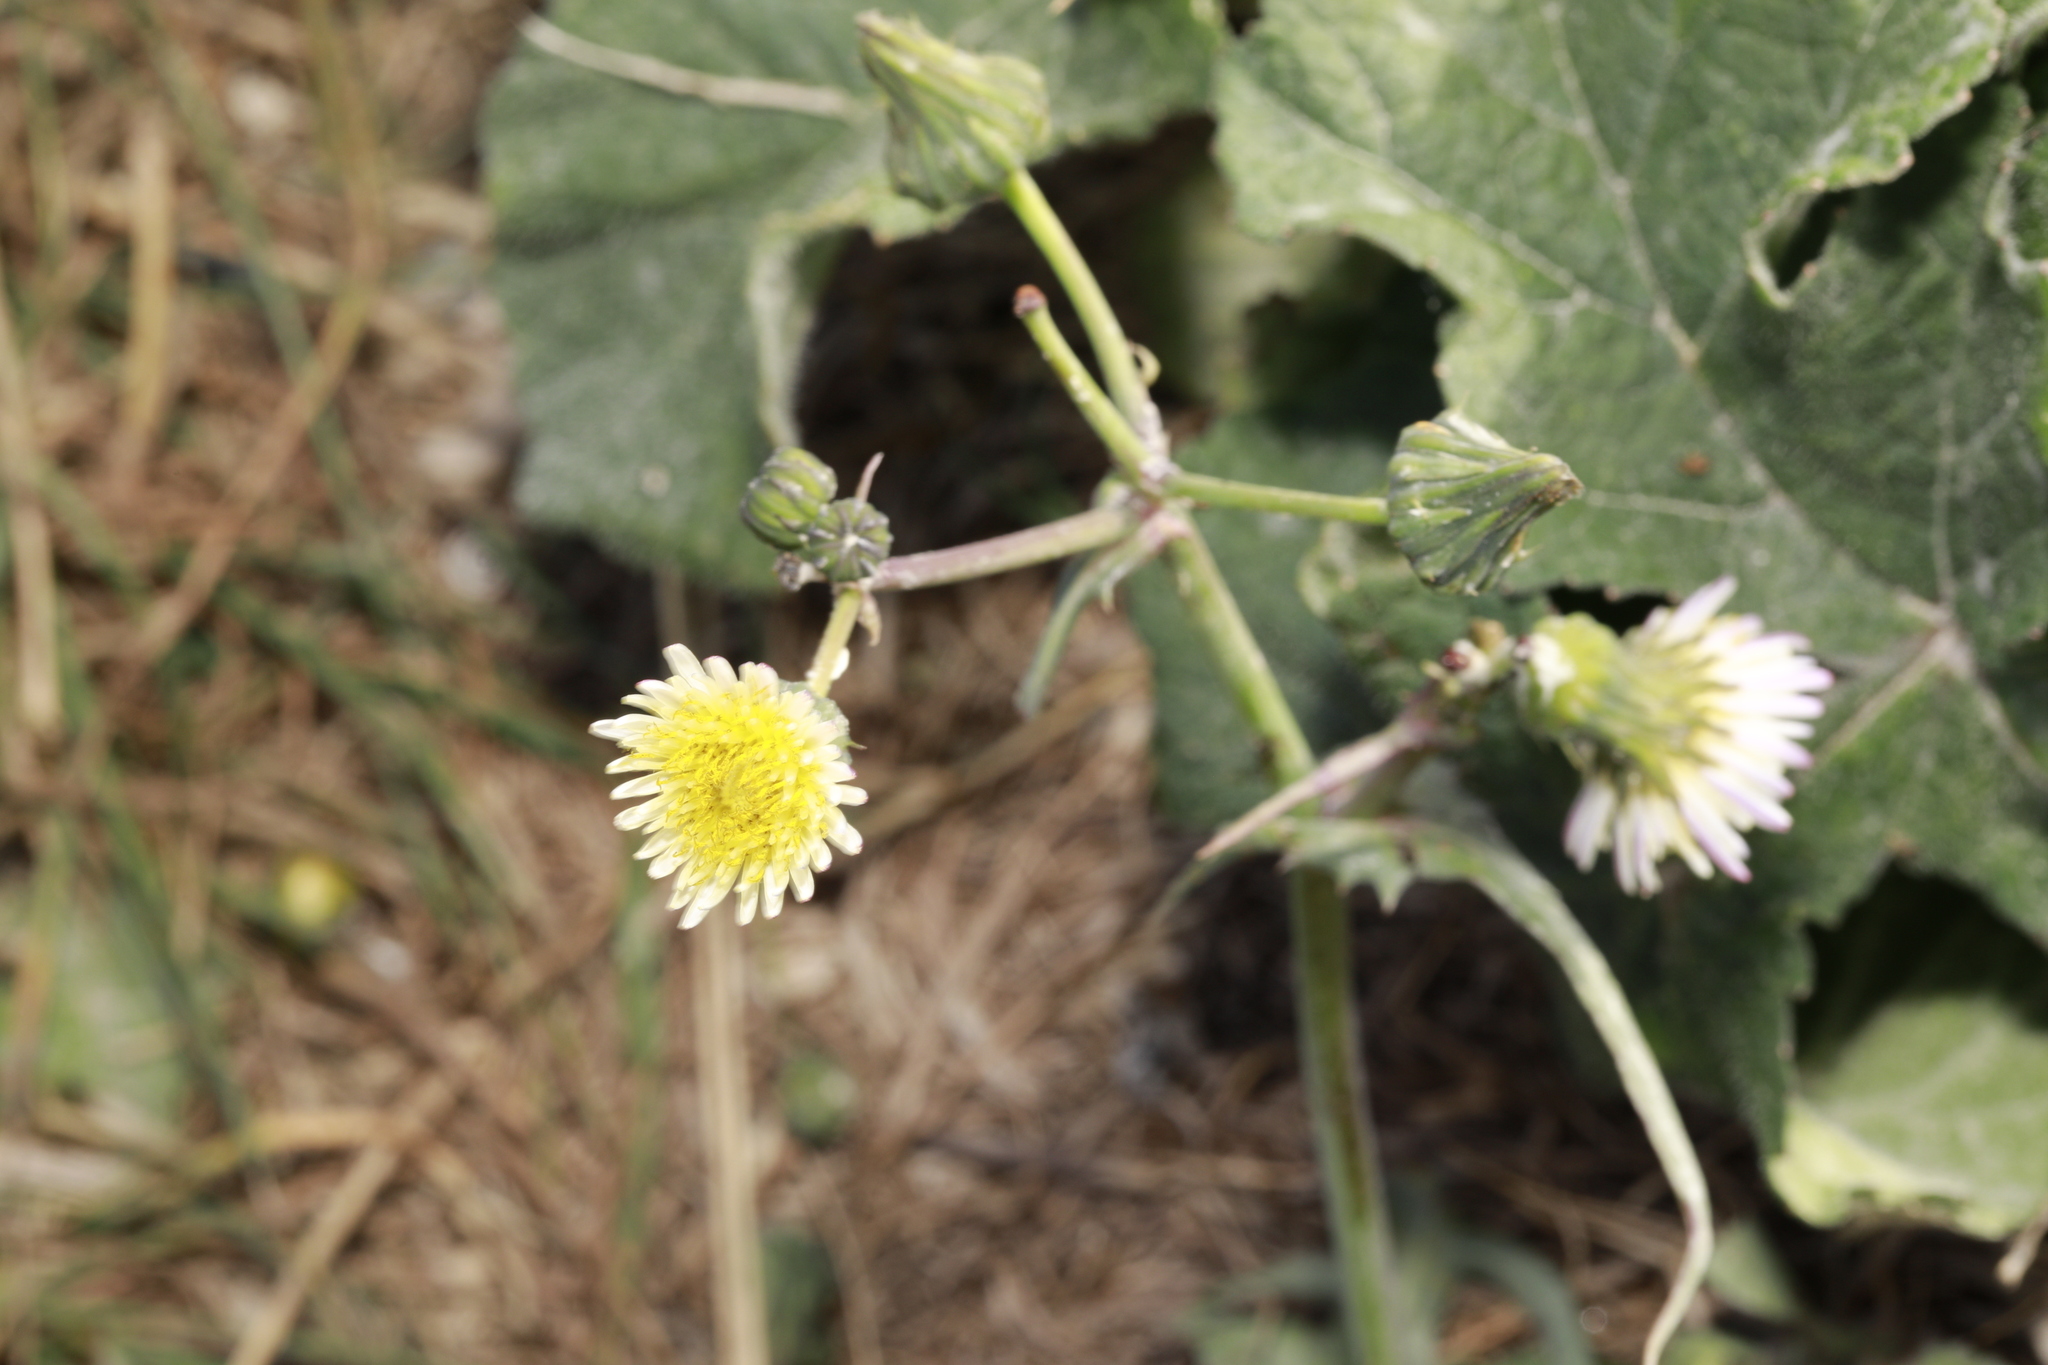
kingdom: Plantae
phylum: Tracheophyta
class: Magnoliopsida
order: Asterales
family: Asteraceae
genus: Sonchus
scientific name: Sonchus oleraceus
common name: Common sowthistle
